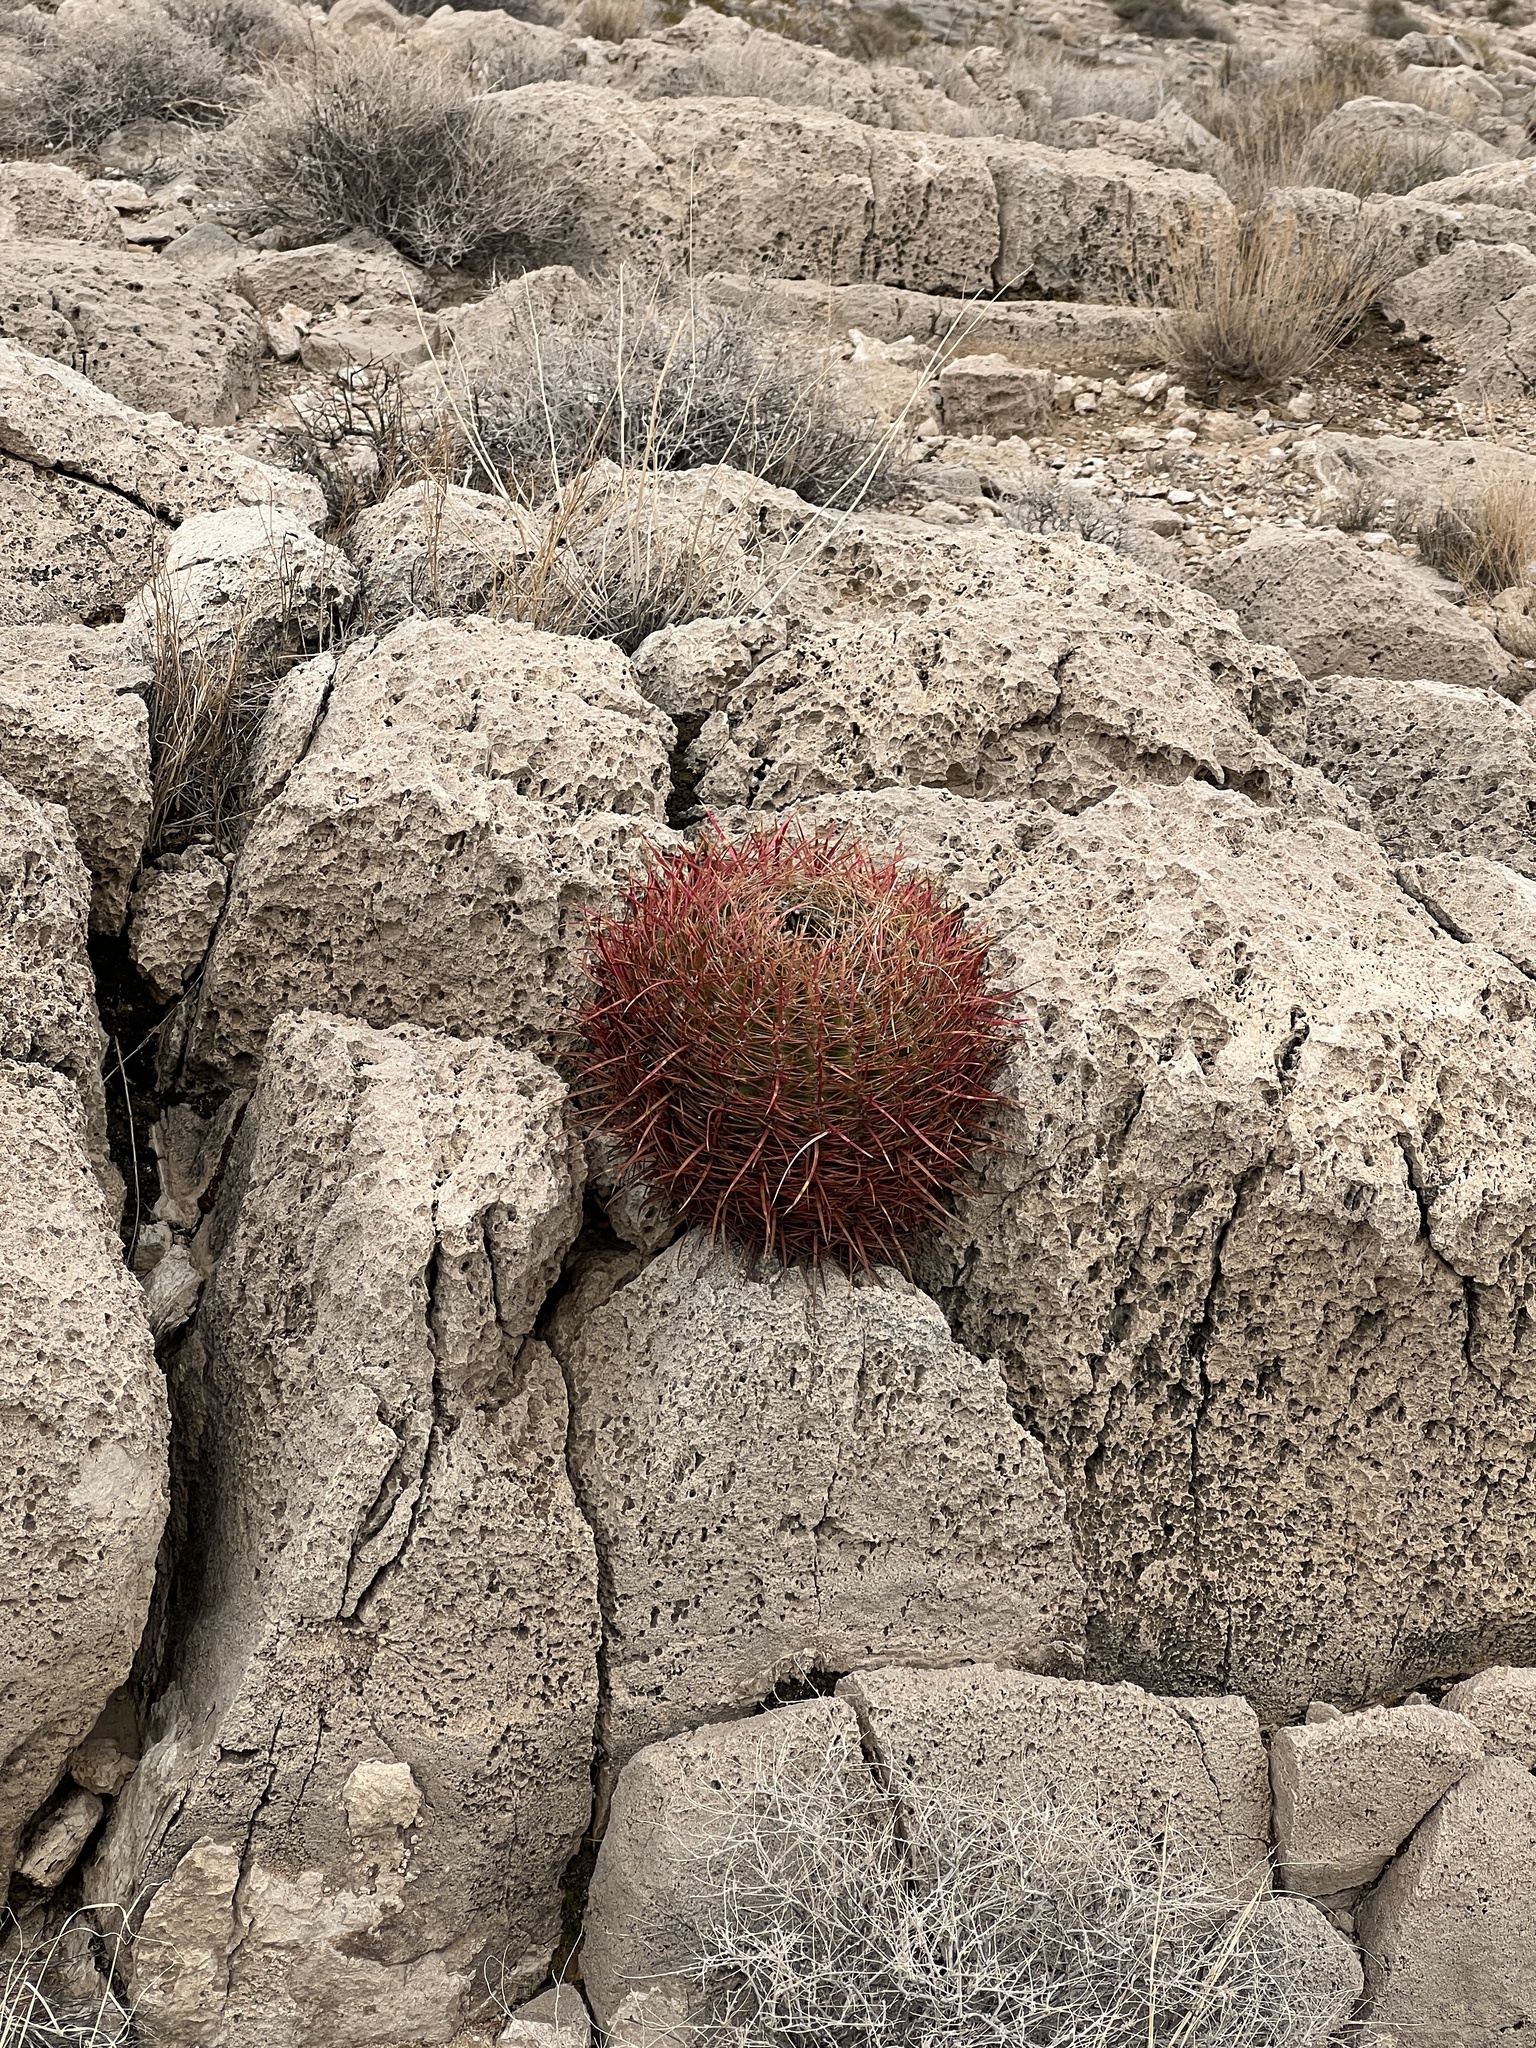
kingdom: Plantae
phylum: Tracheophyta
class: Magnoliopsida
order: Caryophyllales
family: Cactaceae
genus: Ferocactus
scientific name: Ferocactus cylindraceus
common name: California barrel cactus
